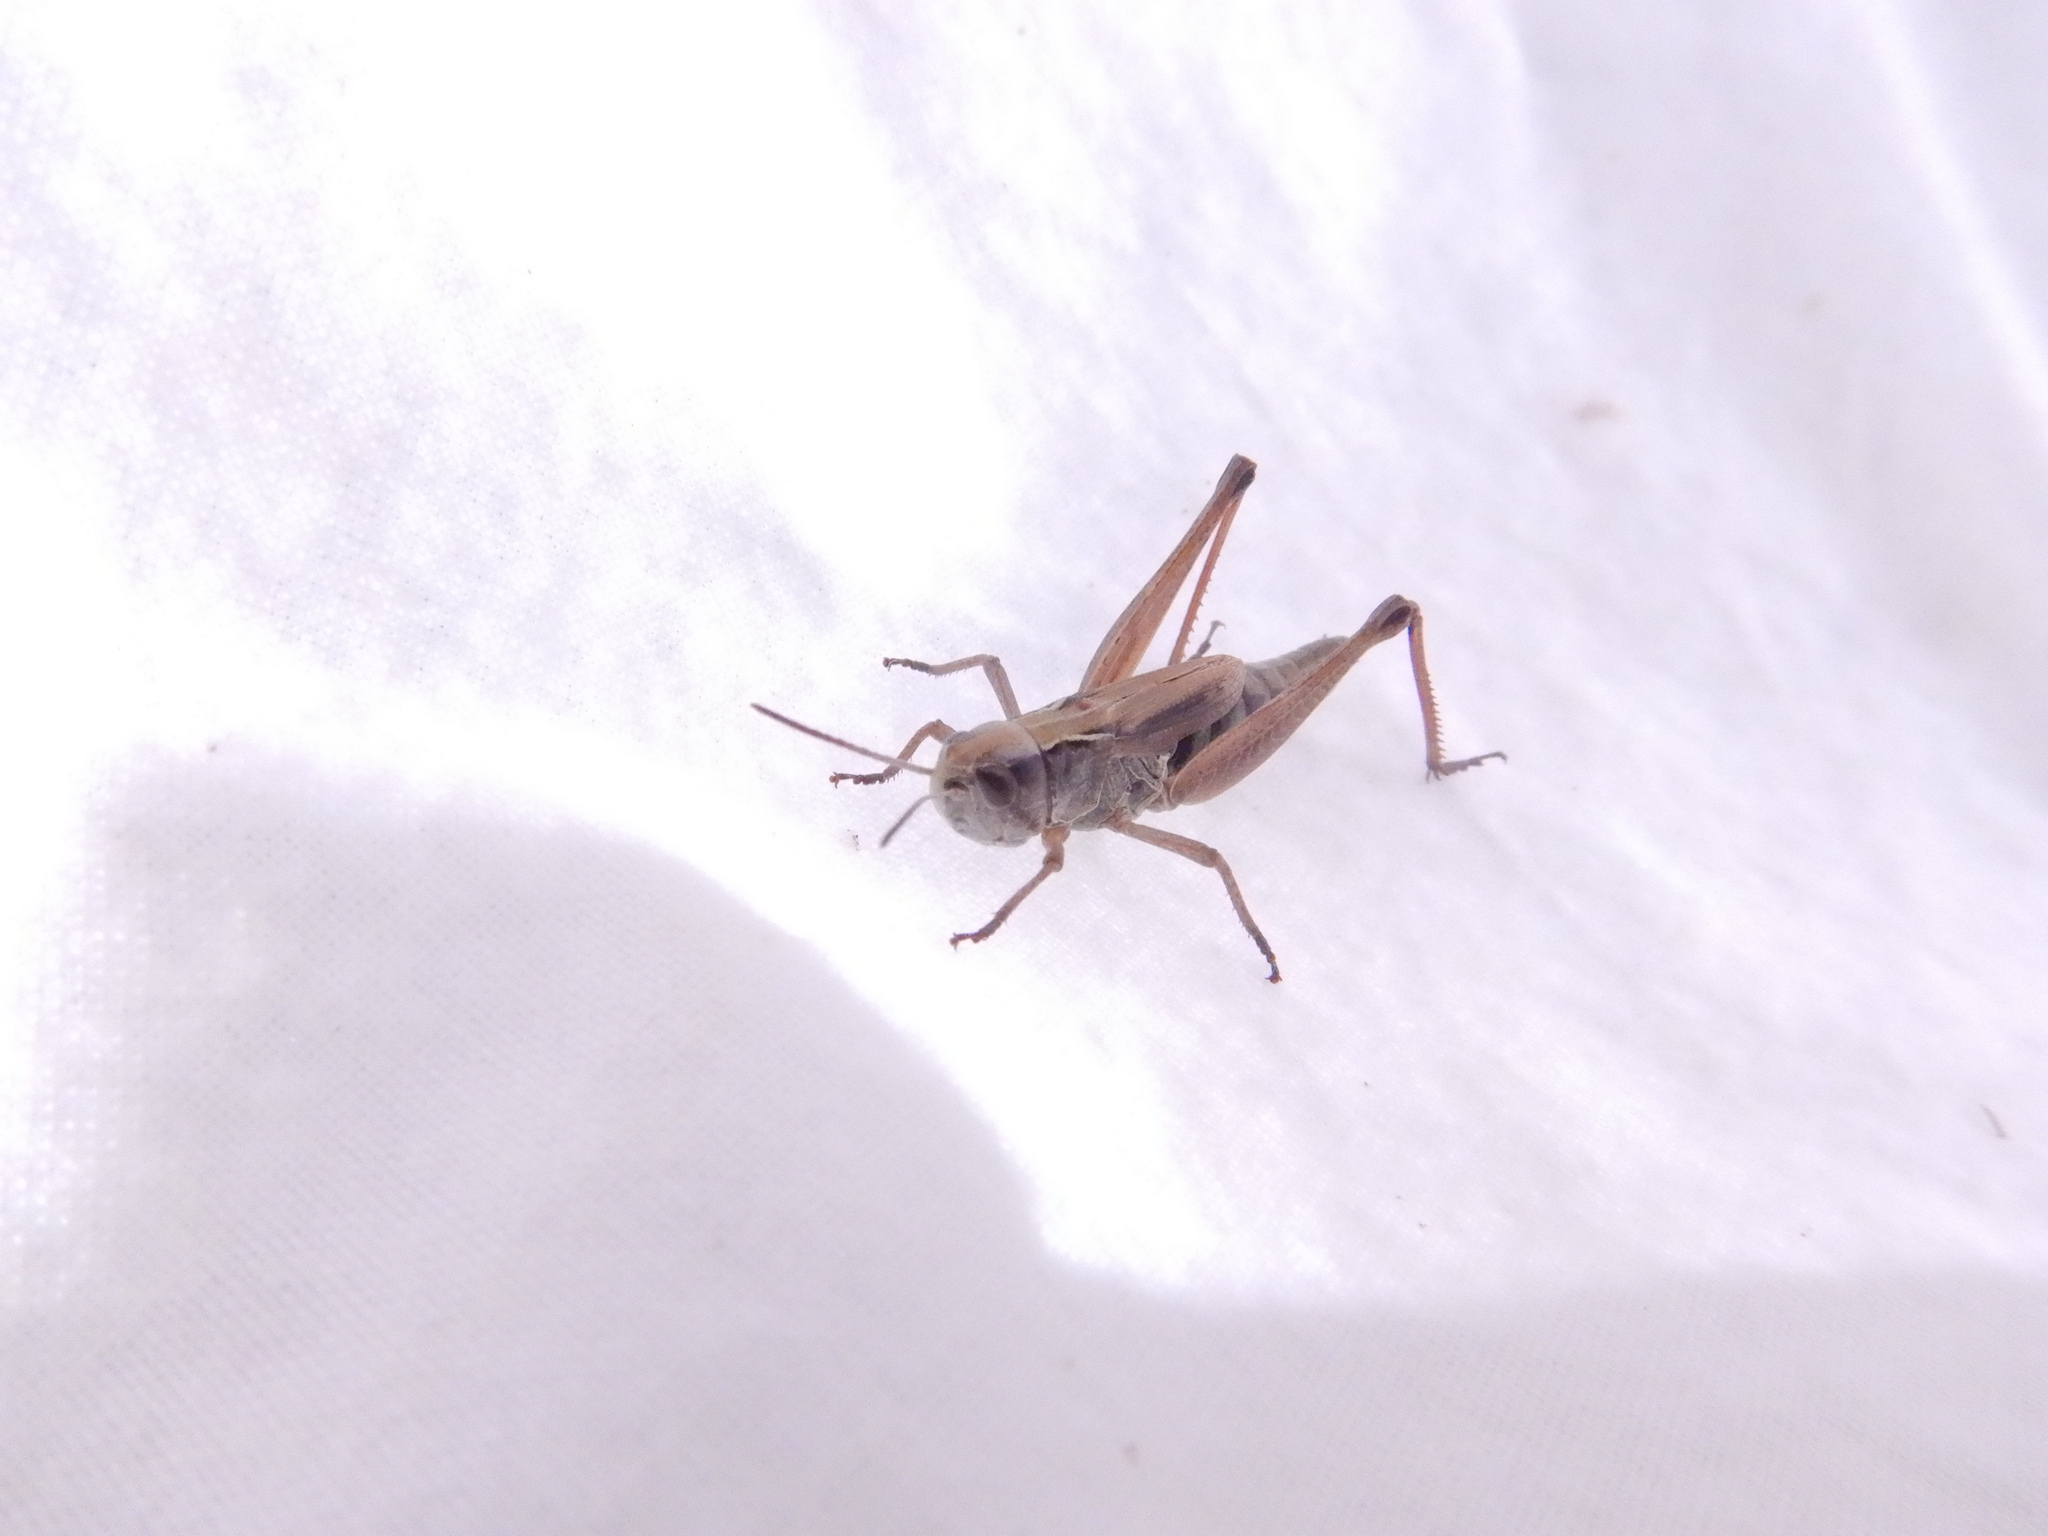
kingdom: Animalia
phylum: Arthropoda
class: Insecta
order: Orthoptera
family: Acrididae
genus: Pseudochorthippus
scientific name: Pseudochorthippus curtipennis
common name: Marsh meadow grasshopper
